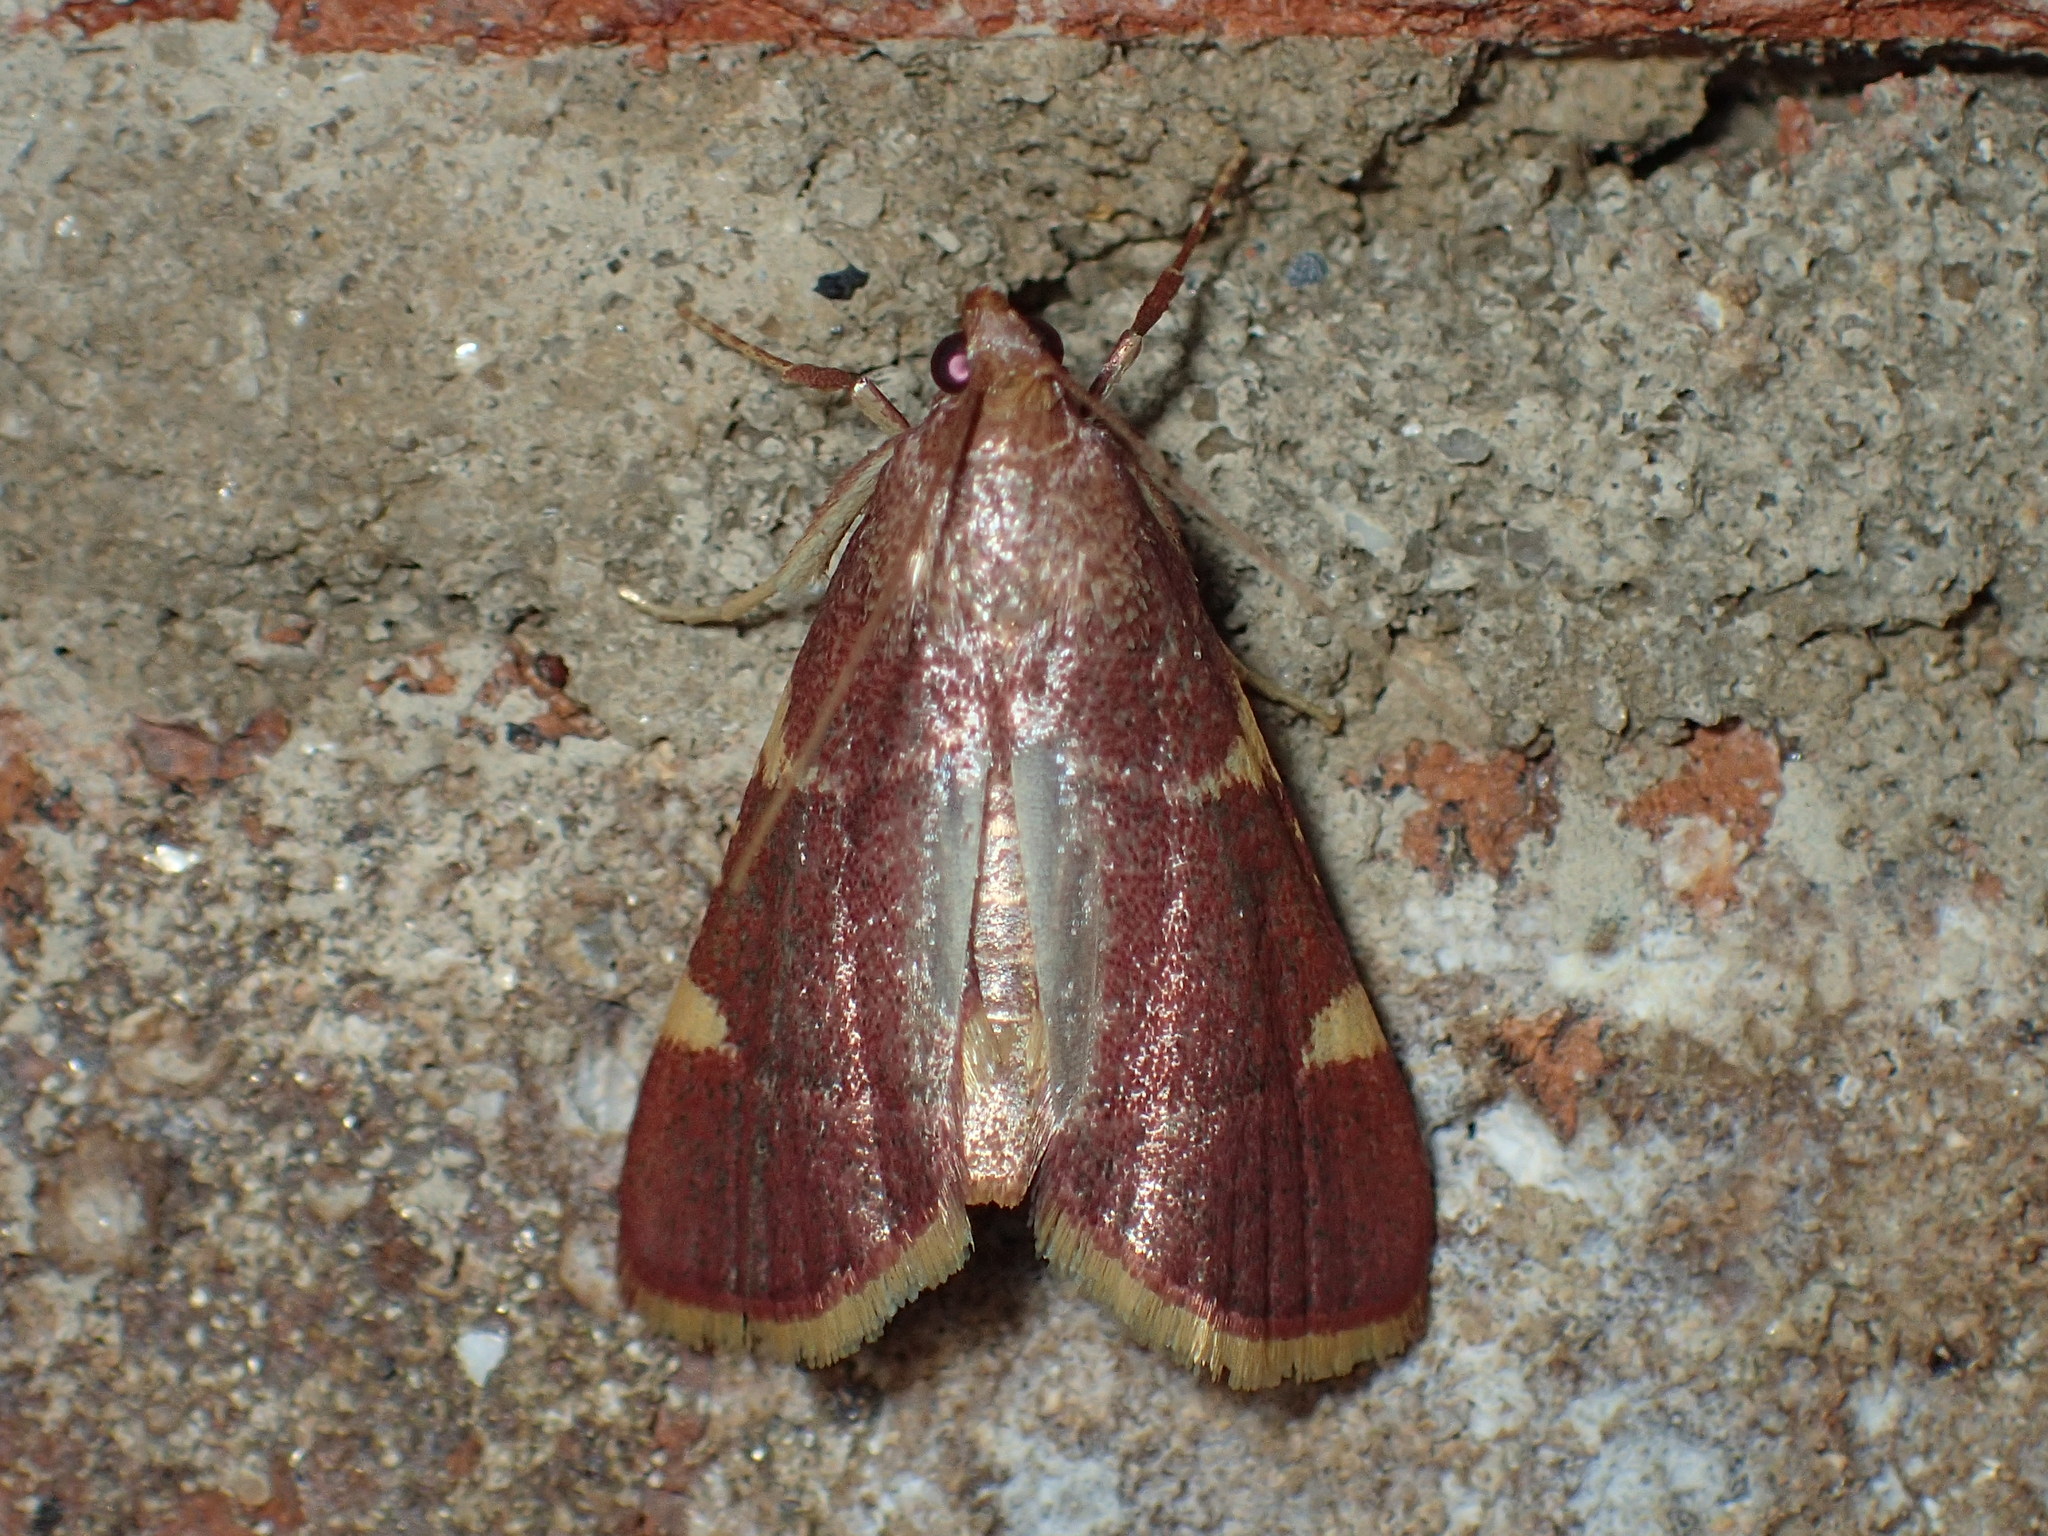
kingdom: Animalia
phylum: Arthropoda
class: Insecta
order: Lepidoptera
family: Pyralidae
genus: Hypsopygia
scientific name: Hypsopygia olinalis
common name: Yellow-fringed dolichomia moth
